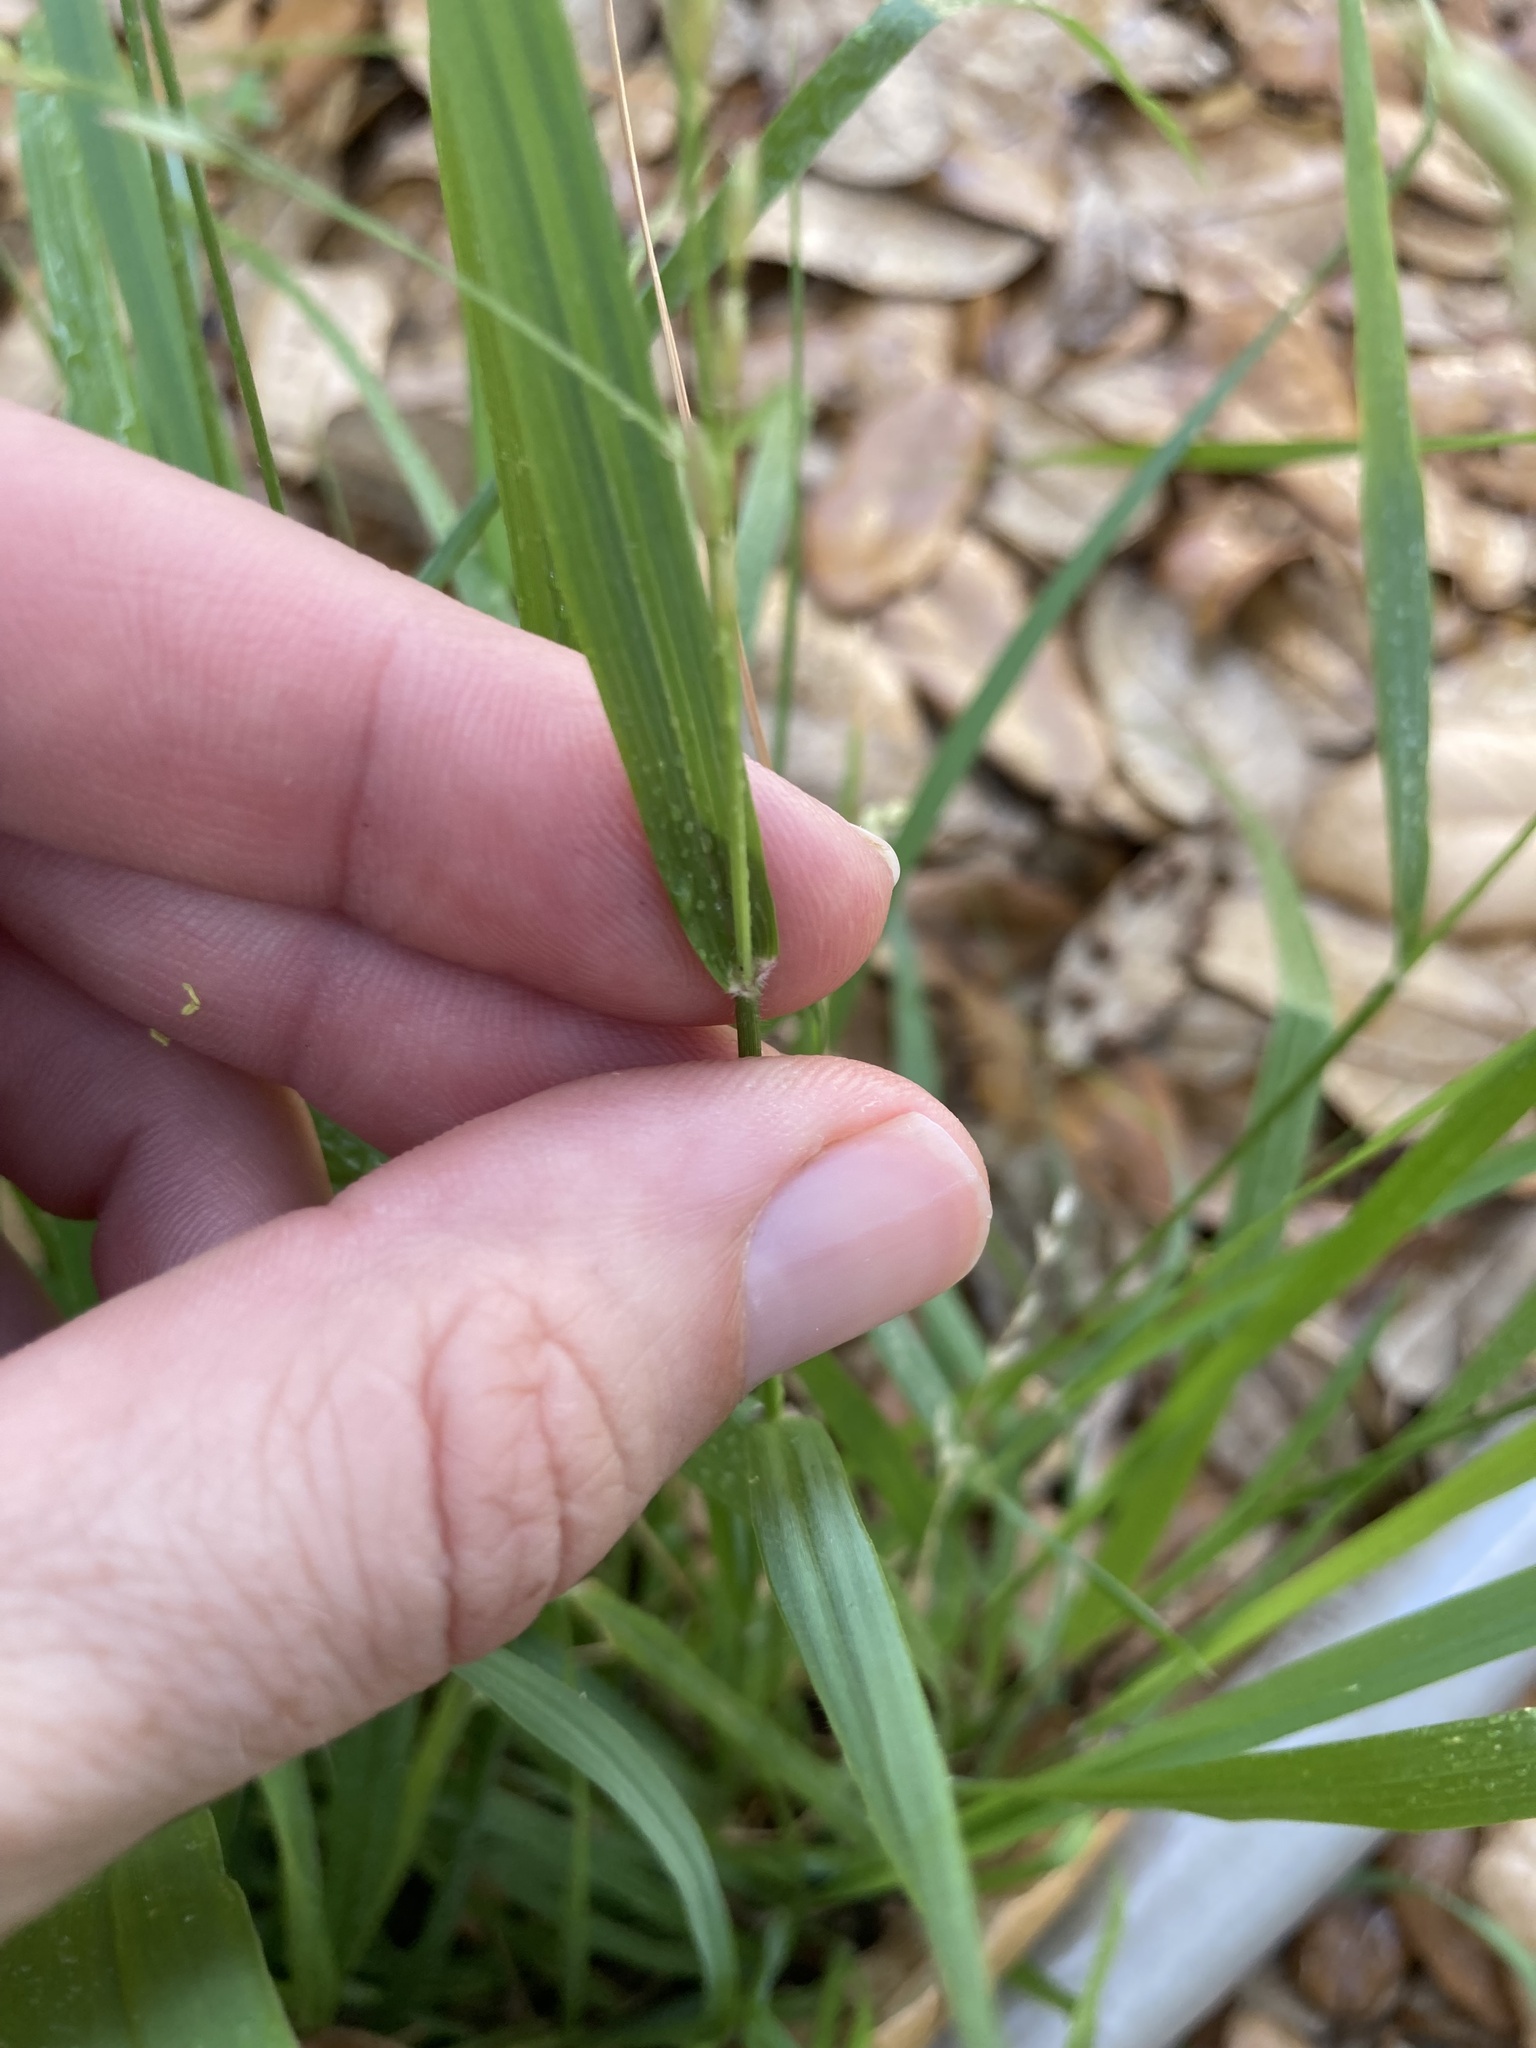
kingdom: Plantae
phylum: Tracheophyta
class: Liliopsida
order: Poales
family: Poaceae
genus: Tridens
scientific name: Tridens texanus
